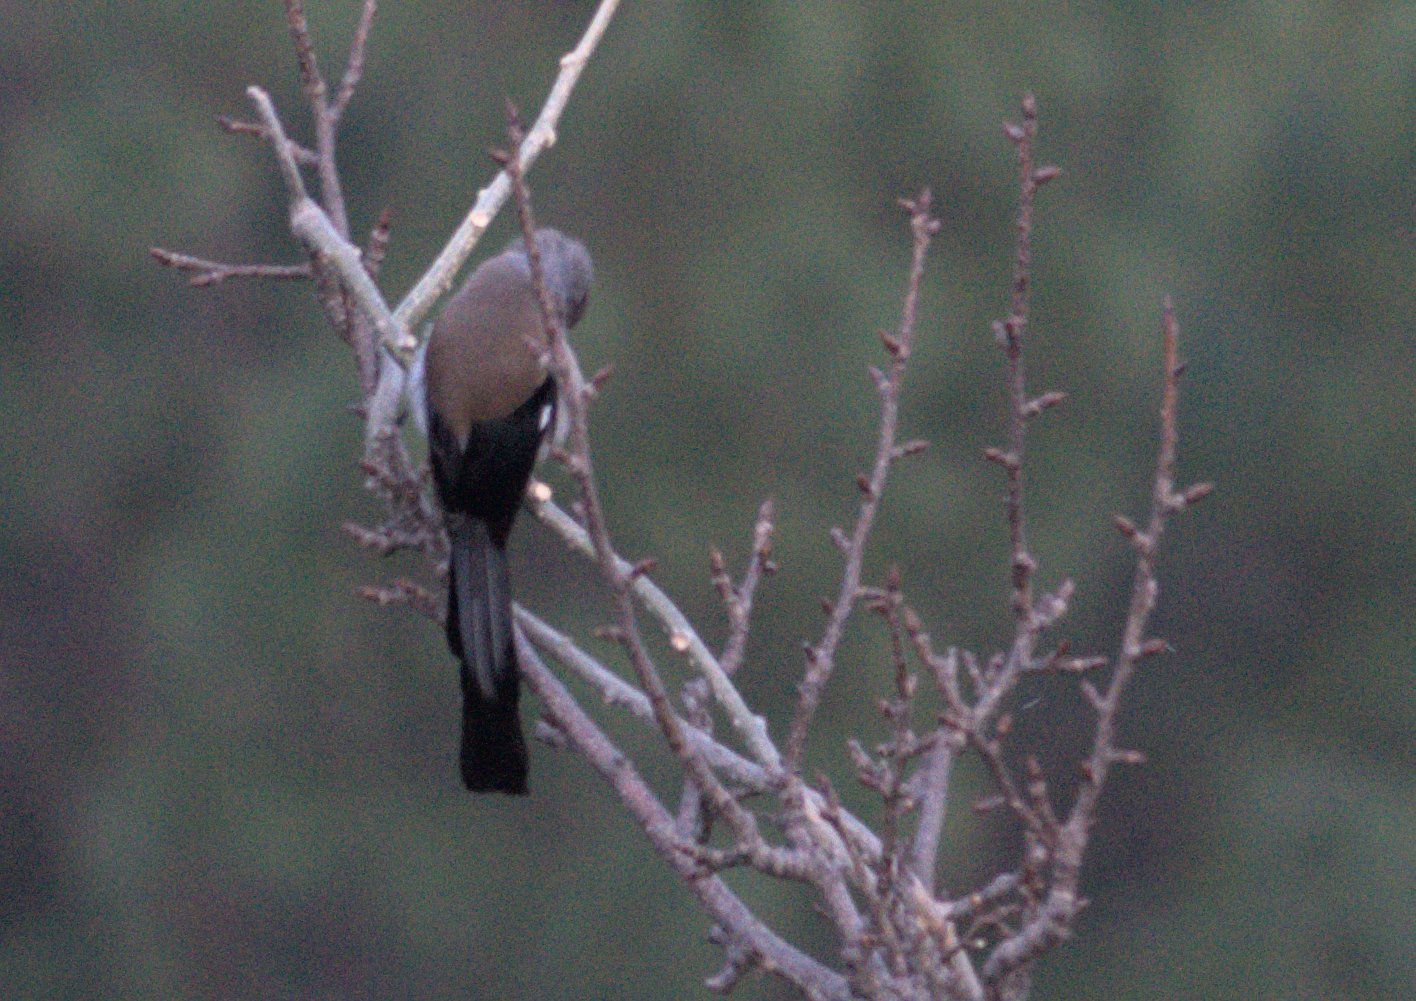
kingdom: Animalia
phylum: Chordata
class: Aves
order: Passeriformes
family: Corvidae
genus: Dendrocitta
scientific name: Dendrocitta formosae
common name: Grey treepie
